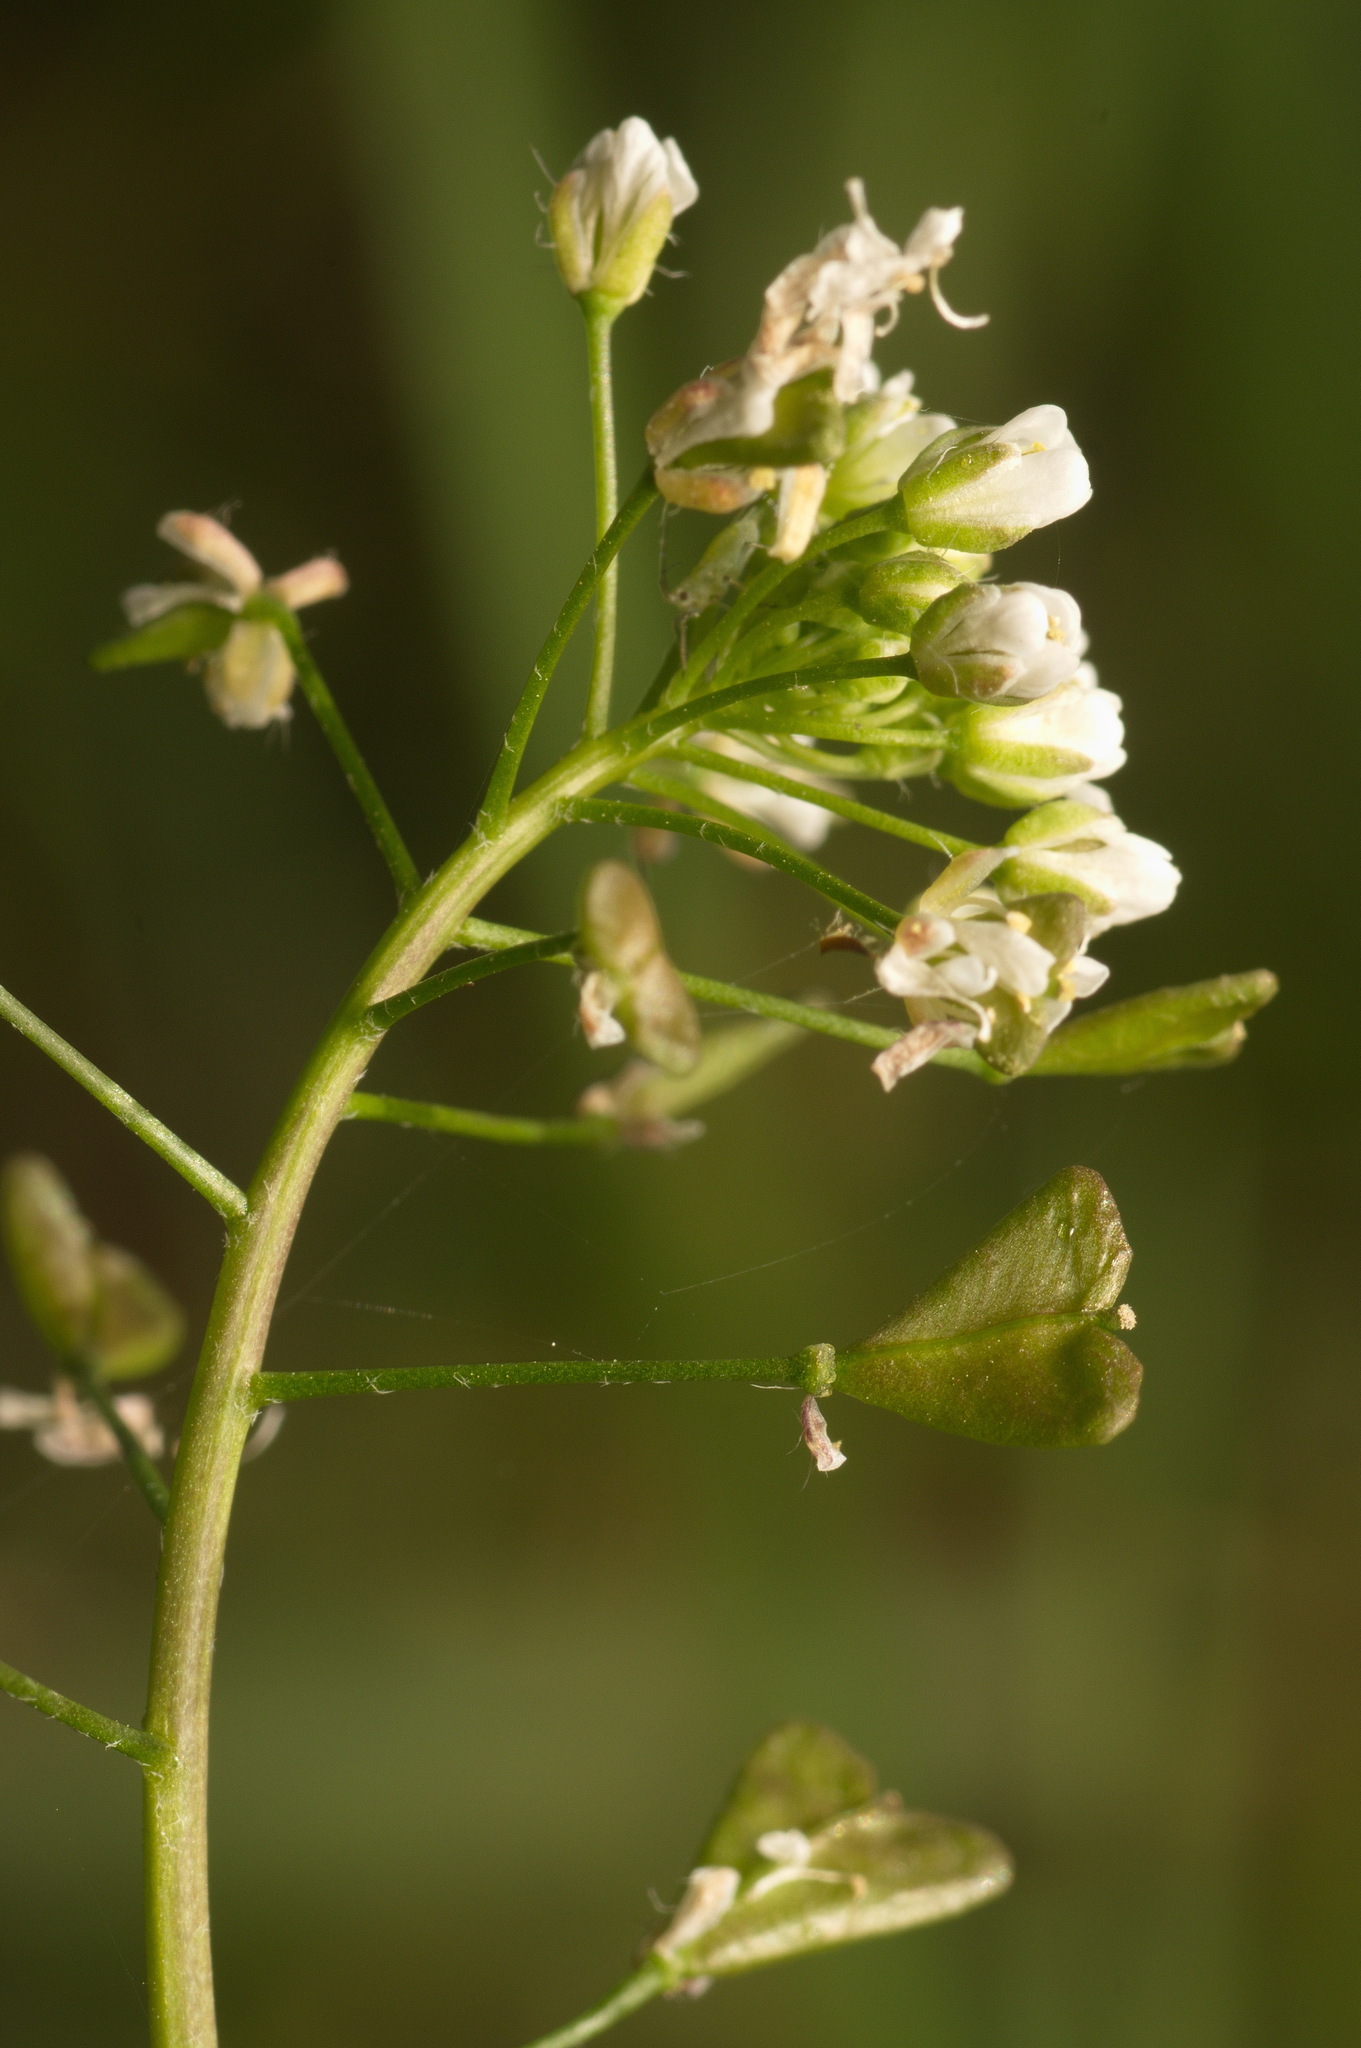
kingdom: Plantae
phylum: Tracheophyta
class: Magnoliopsida
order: Brassicales
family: Brassicaceae
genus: Capsella
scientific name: Capsella bursa-pastoris
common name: Shepherd's purse
